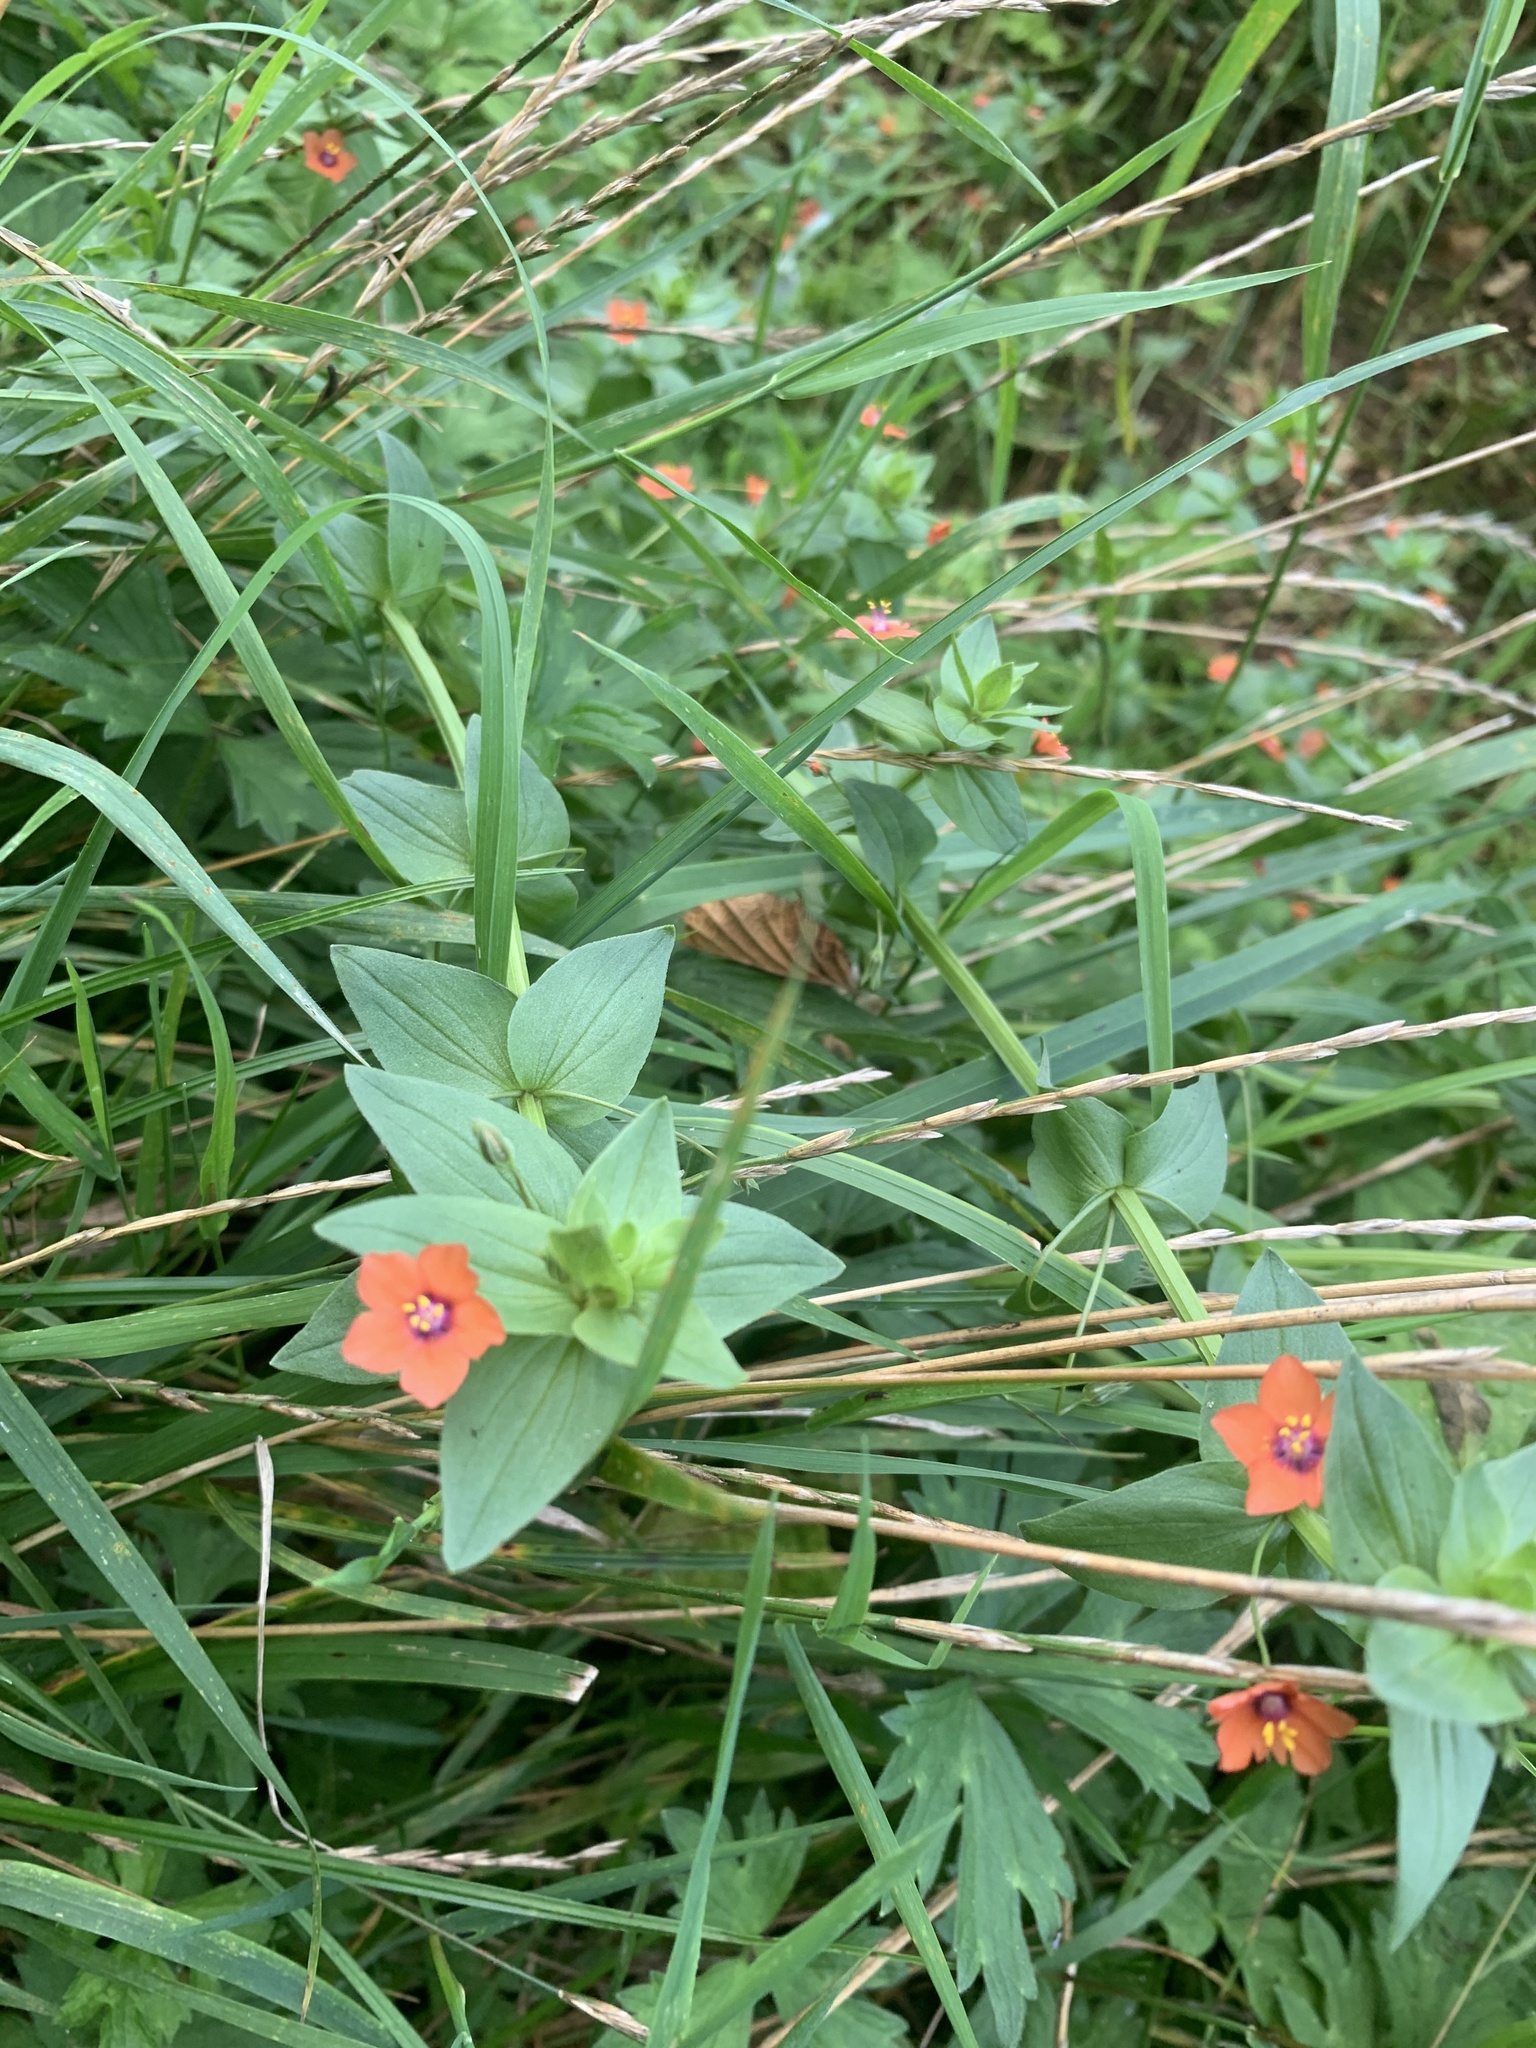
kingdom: Plantae
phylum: Tracheophyta
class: Magnoliopsida
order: Ericales
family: Primulaceae
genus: Lysimachia
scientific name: Lysimachia arvensis
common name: Scarlet pimpernel
